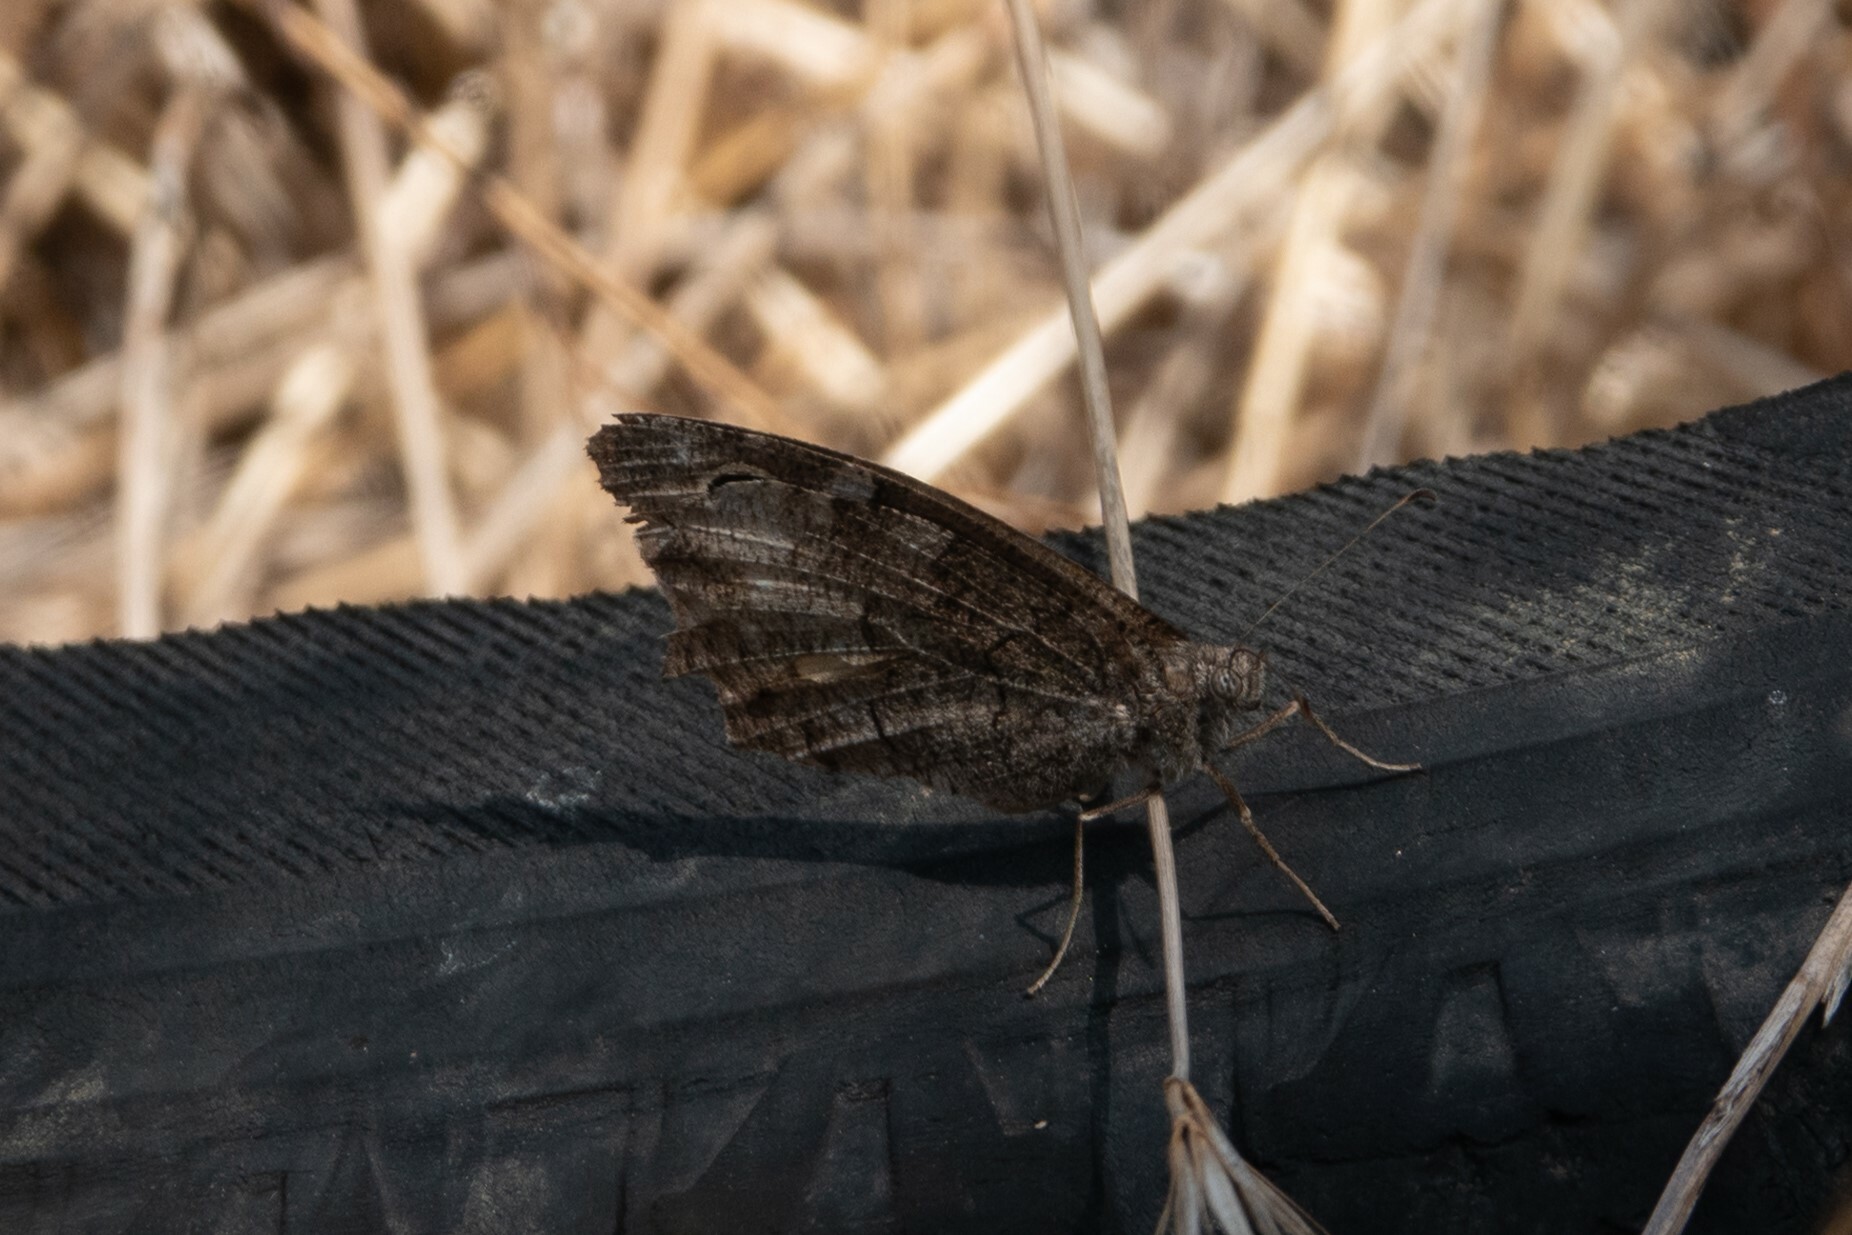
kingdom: Animalia
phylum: Arthropoda
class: Insecta
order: Lepidoptera
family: Nymphalidae
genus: Hipparchia
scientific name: Hipparchia statilinus
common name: Tree grayling
